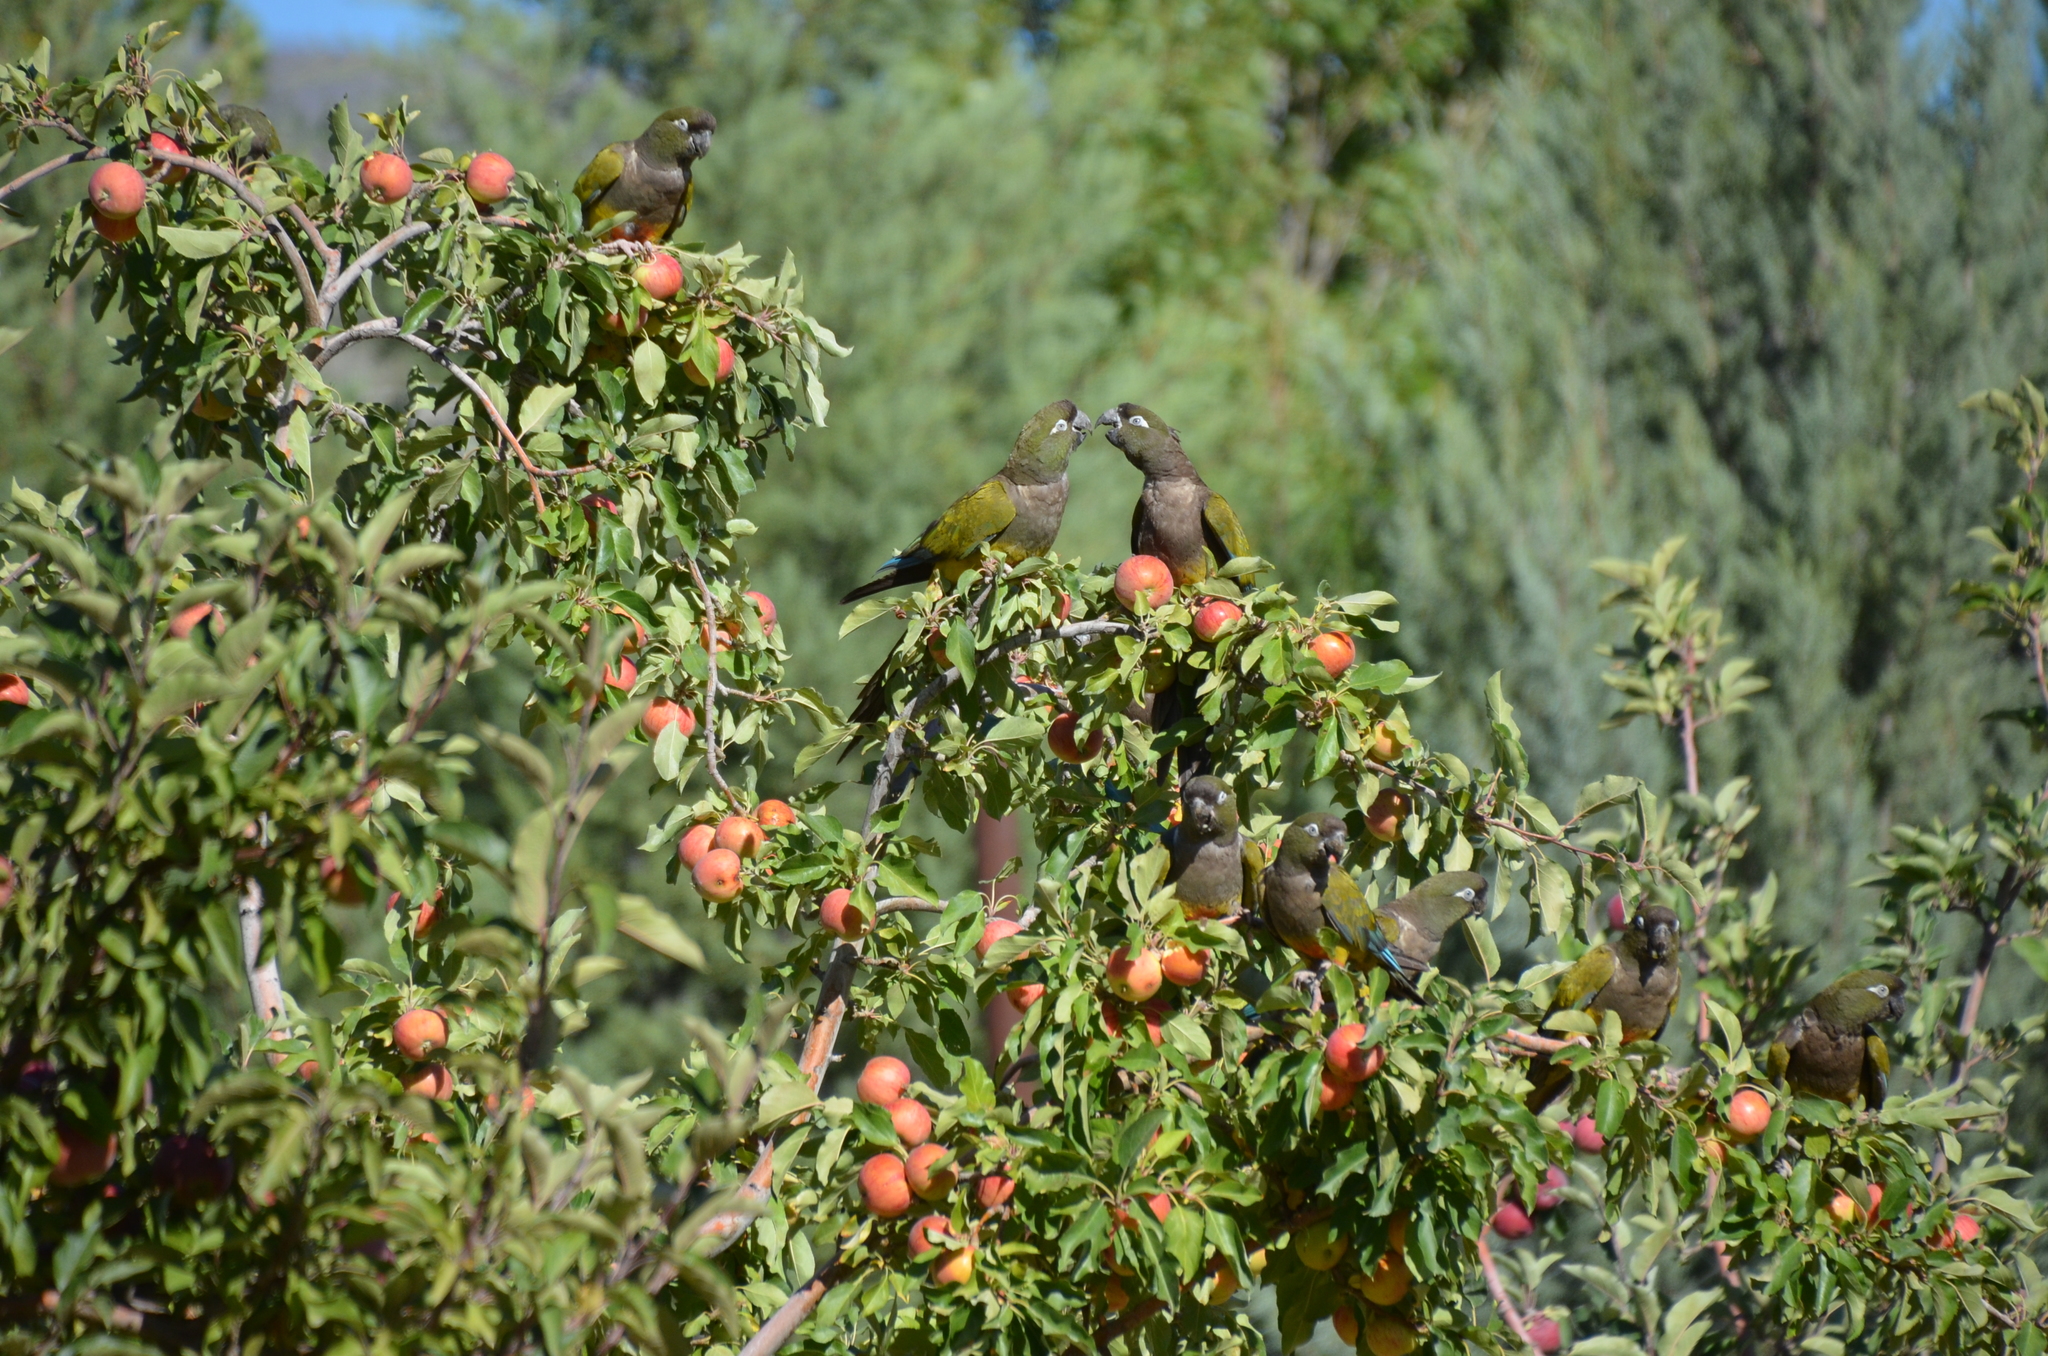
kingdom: Animalia
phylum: Chordata
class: Aves
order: Psittaciformes
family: Psittacidae
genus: Cyanoliseus
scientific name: Cyanoliseus patagonus
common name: Burrowing parrot
